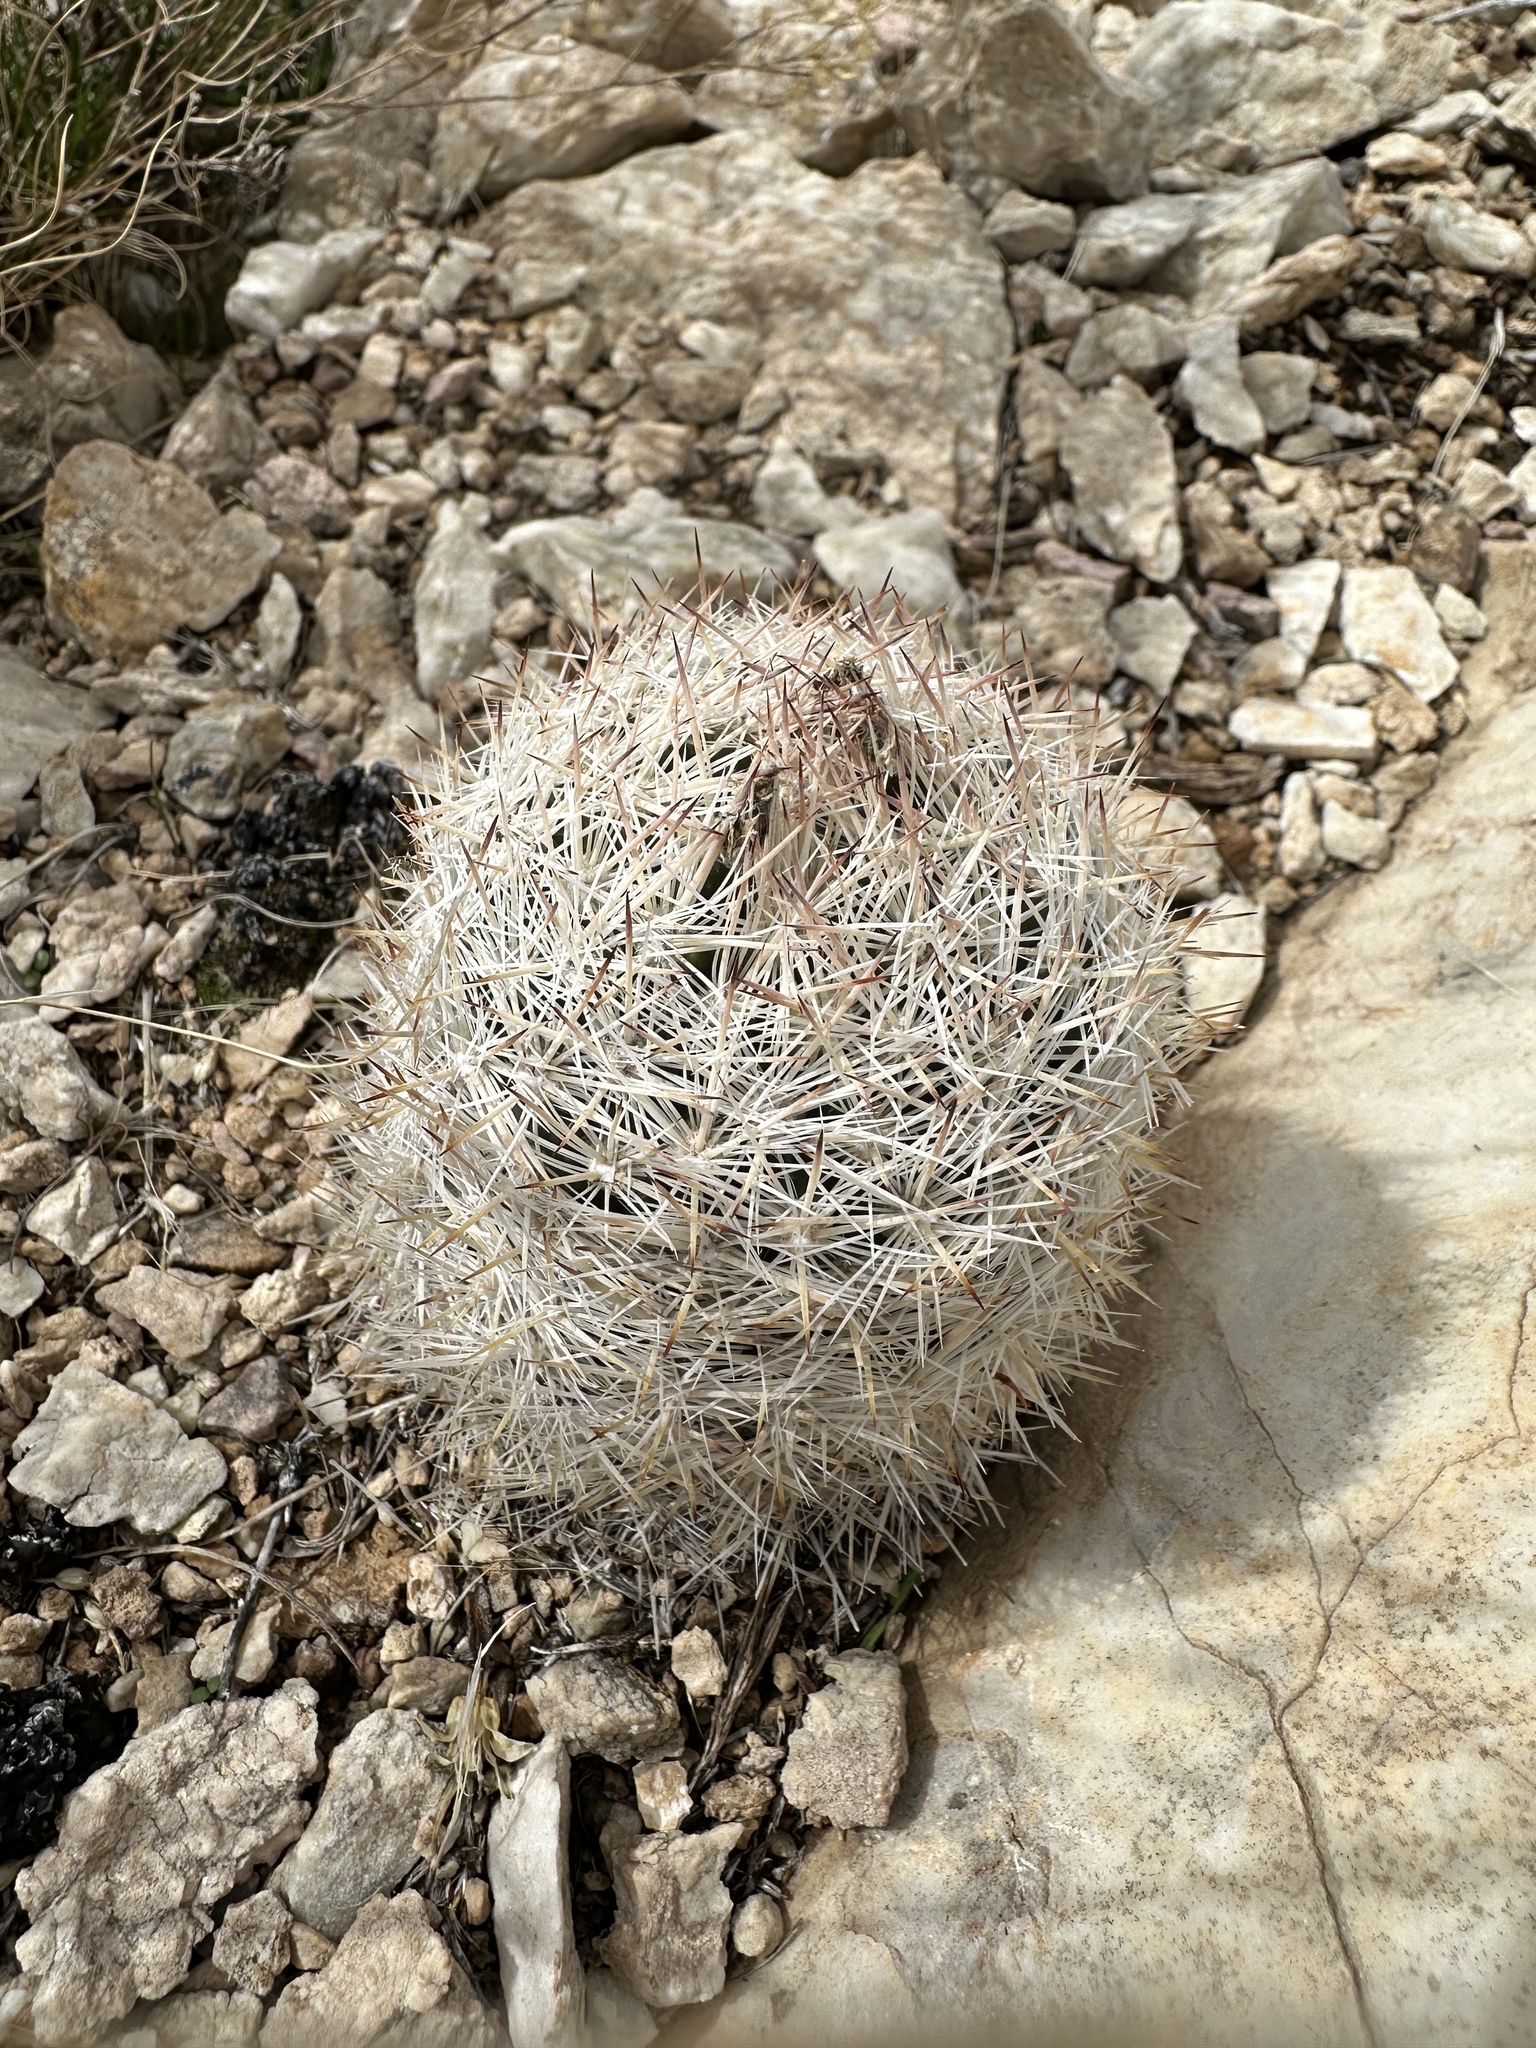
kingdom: Plantae
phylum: Tracheophyta
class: Magnoliopsida
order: Caryophyllales
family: Cactaceae
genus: Pelecyphora
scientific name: Pelecyphora dasyacantha
